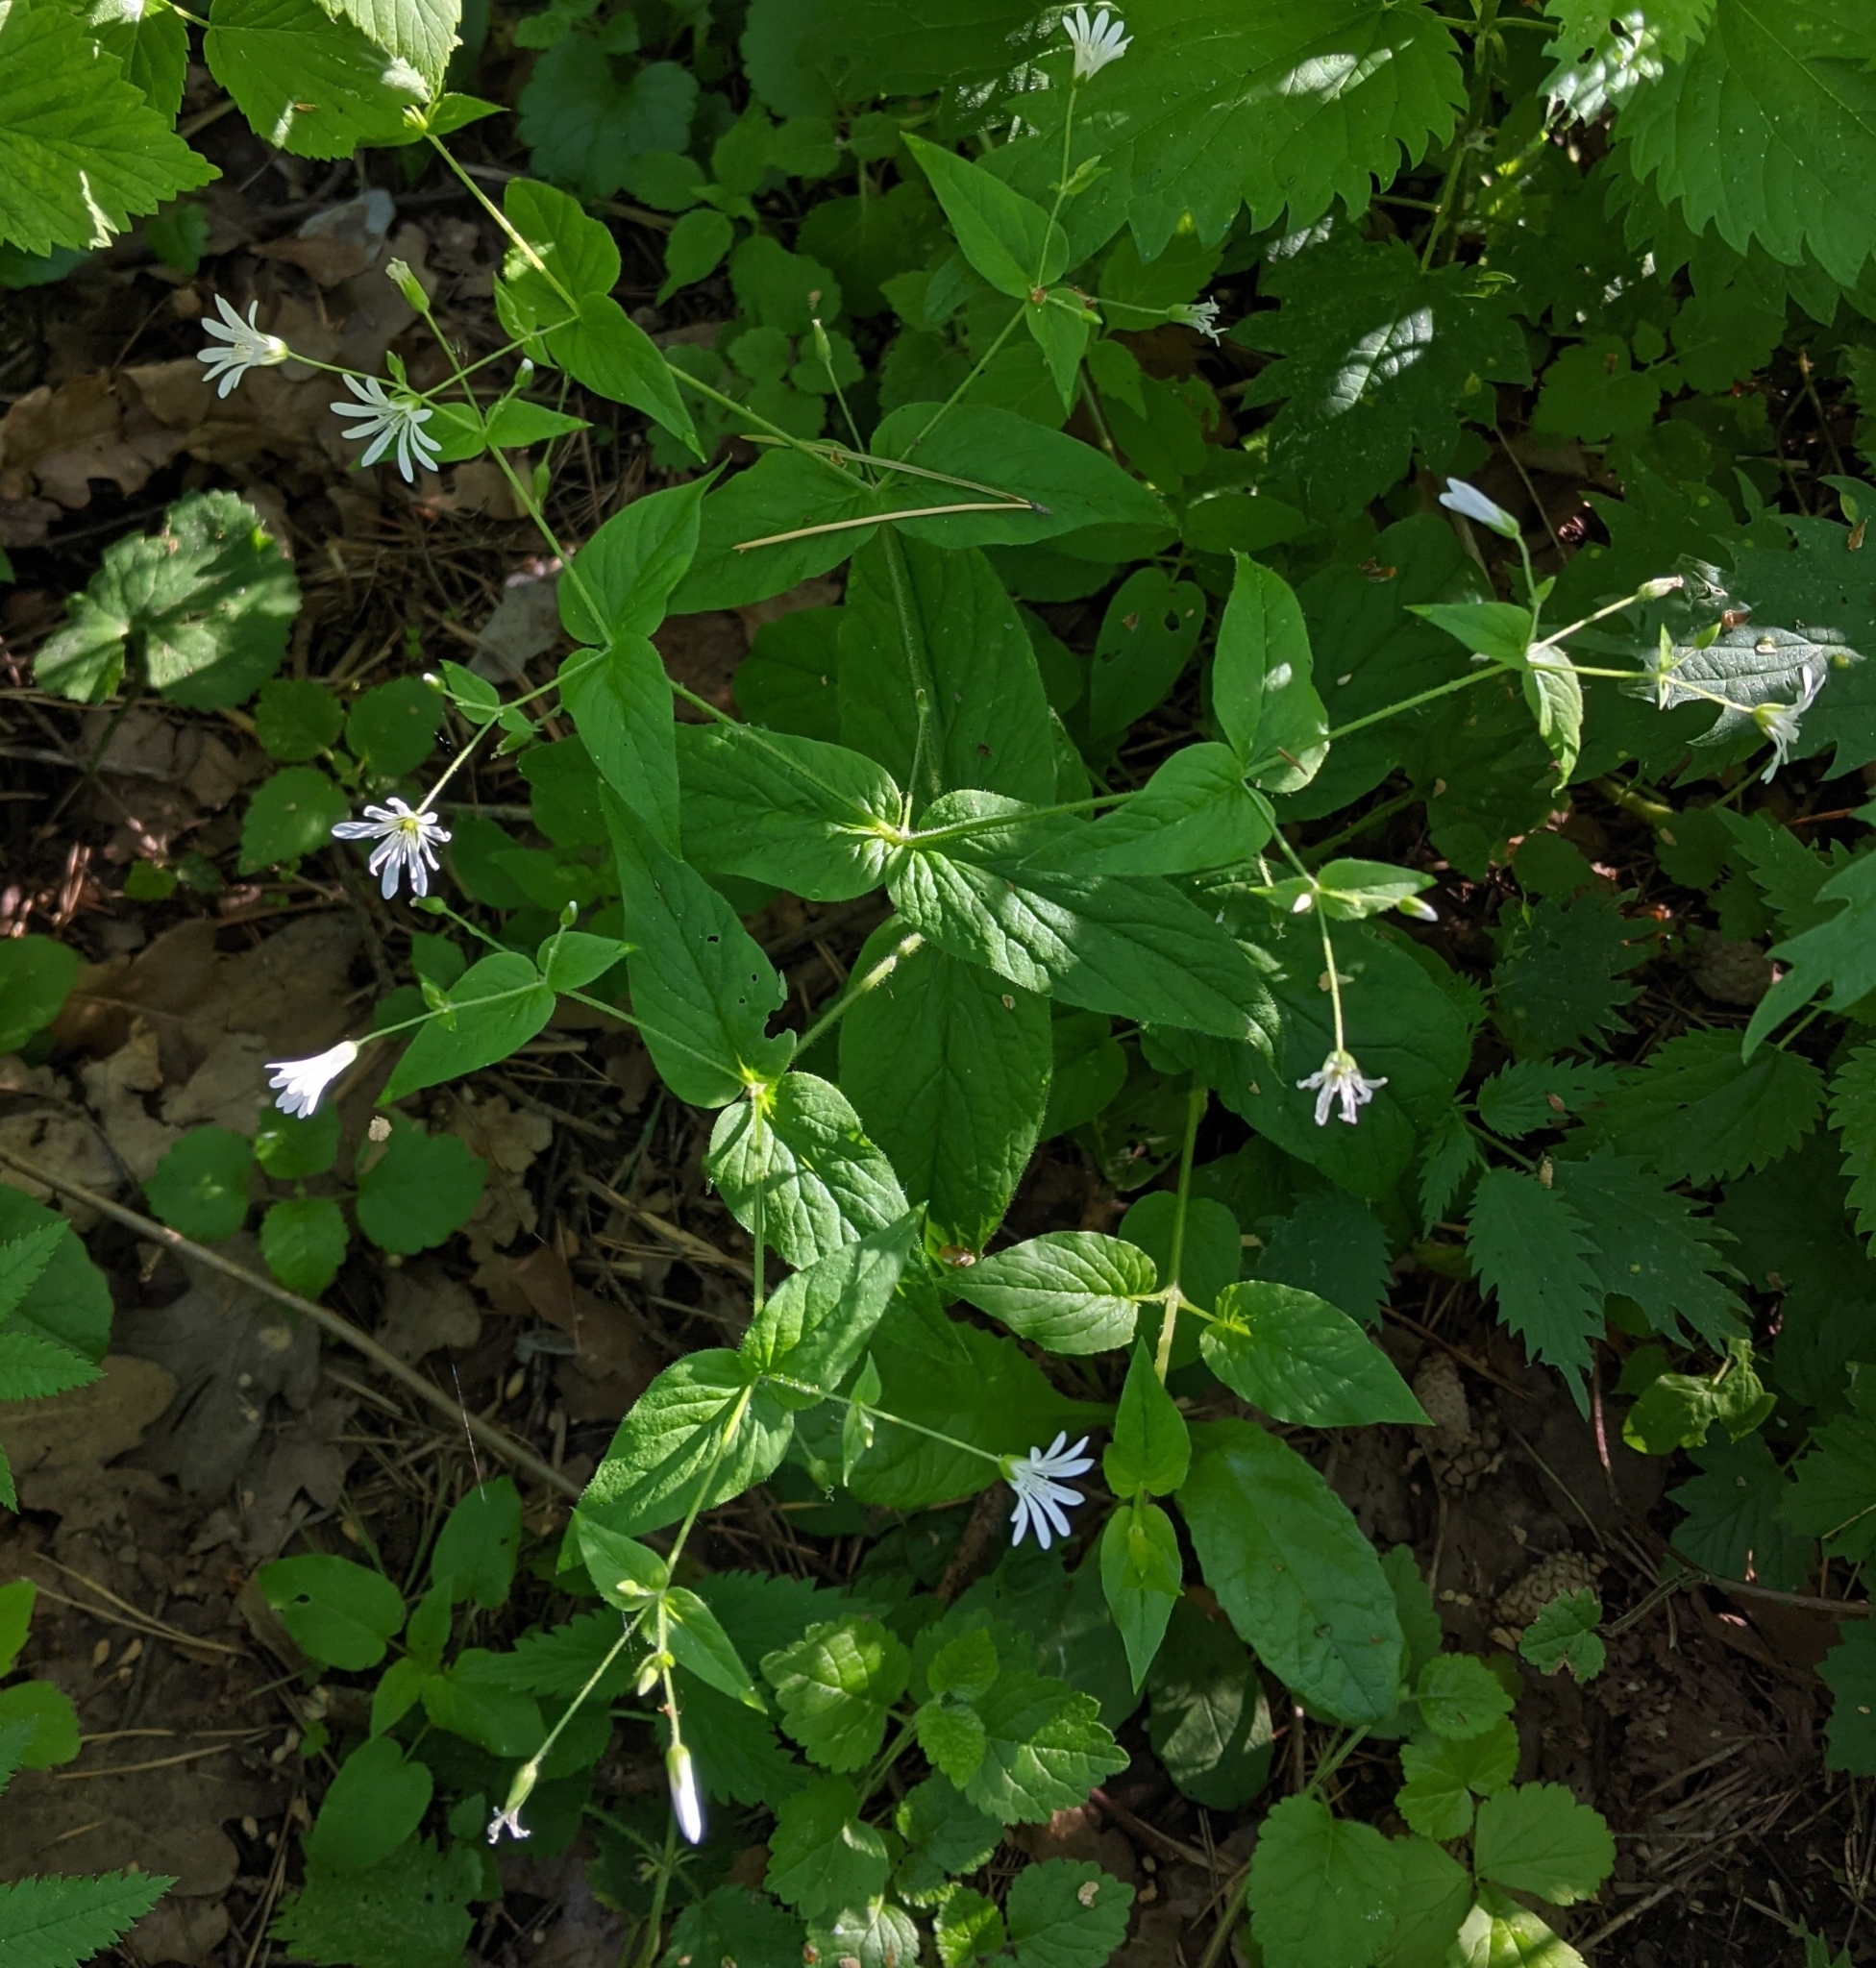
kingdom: Plantae
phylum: Tracheophyta
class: Magnoliopsida
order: Caryophyllales
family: Caryophyllaceae
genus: Stellaria
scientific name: Stellaria nemorum
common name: Wood stitchwort
